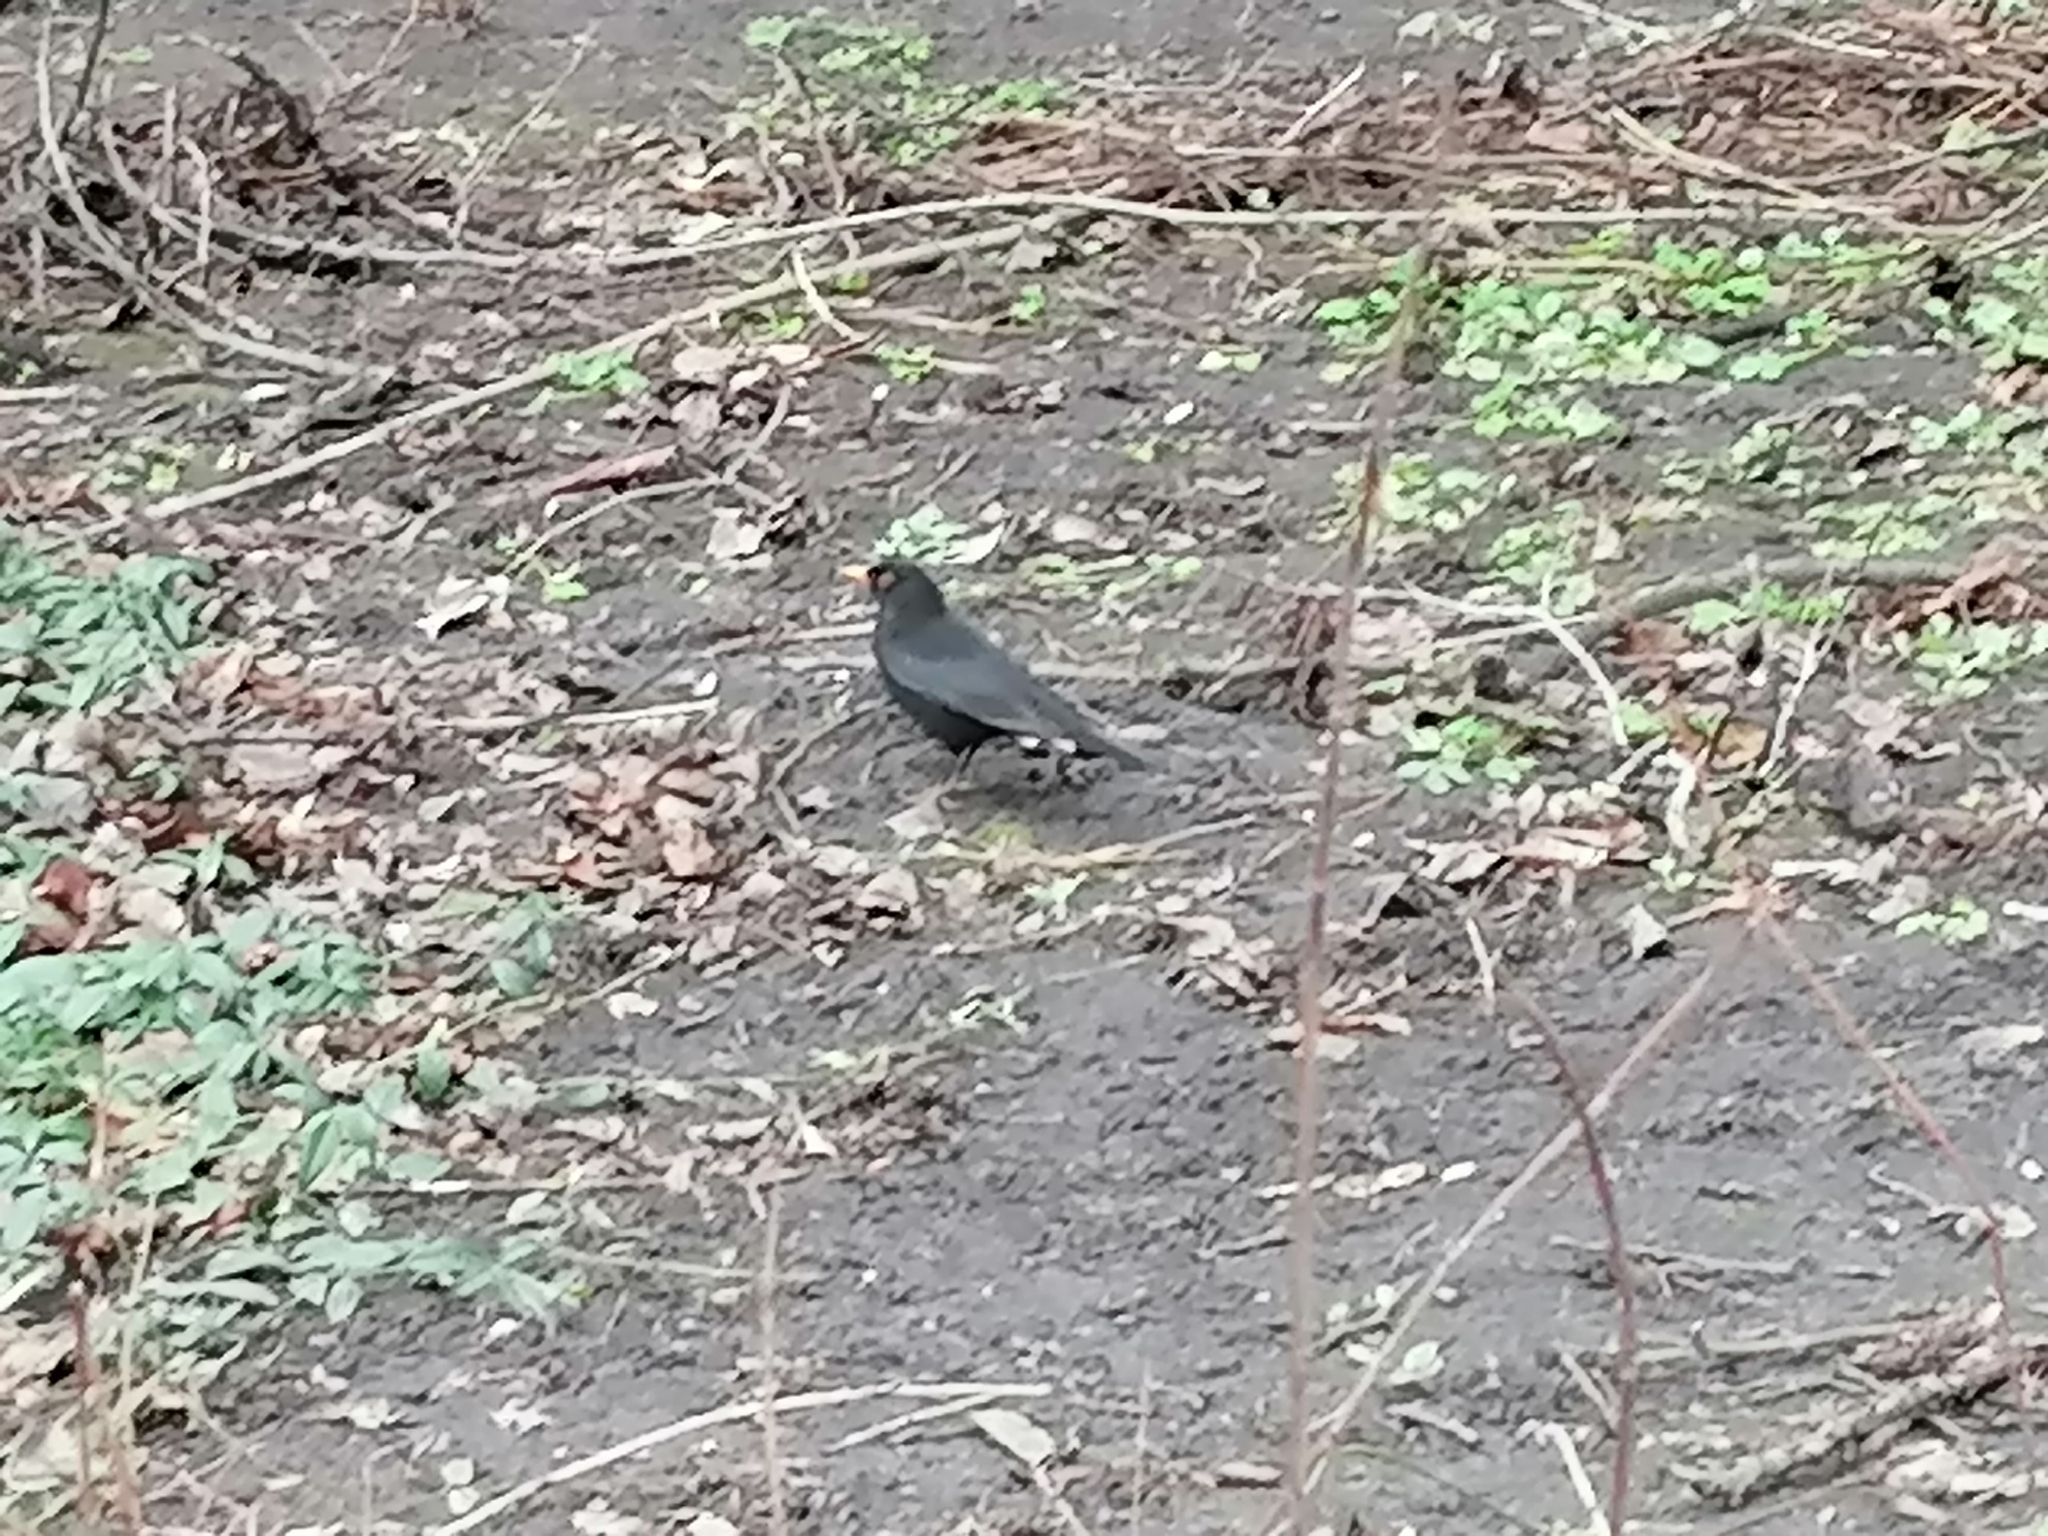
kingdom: Animalia
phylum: Chordata
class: Aves
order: Passeriformes
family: Turdidae
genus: Turdus
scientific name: Turdus merula
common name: Common blackbird
